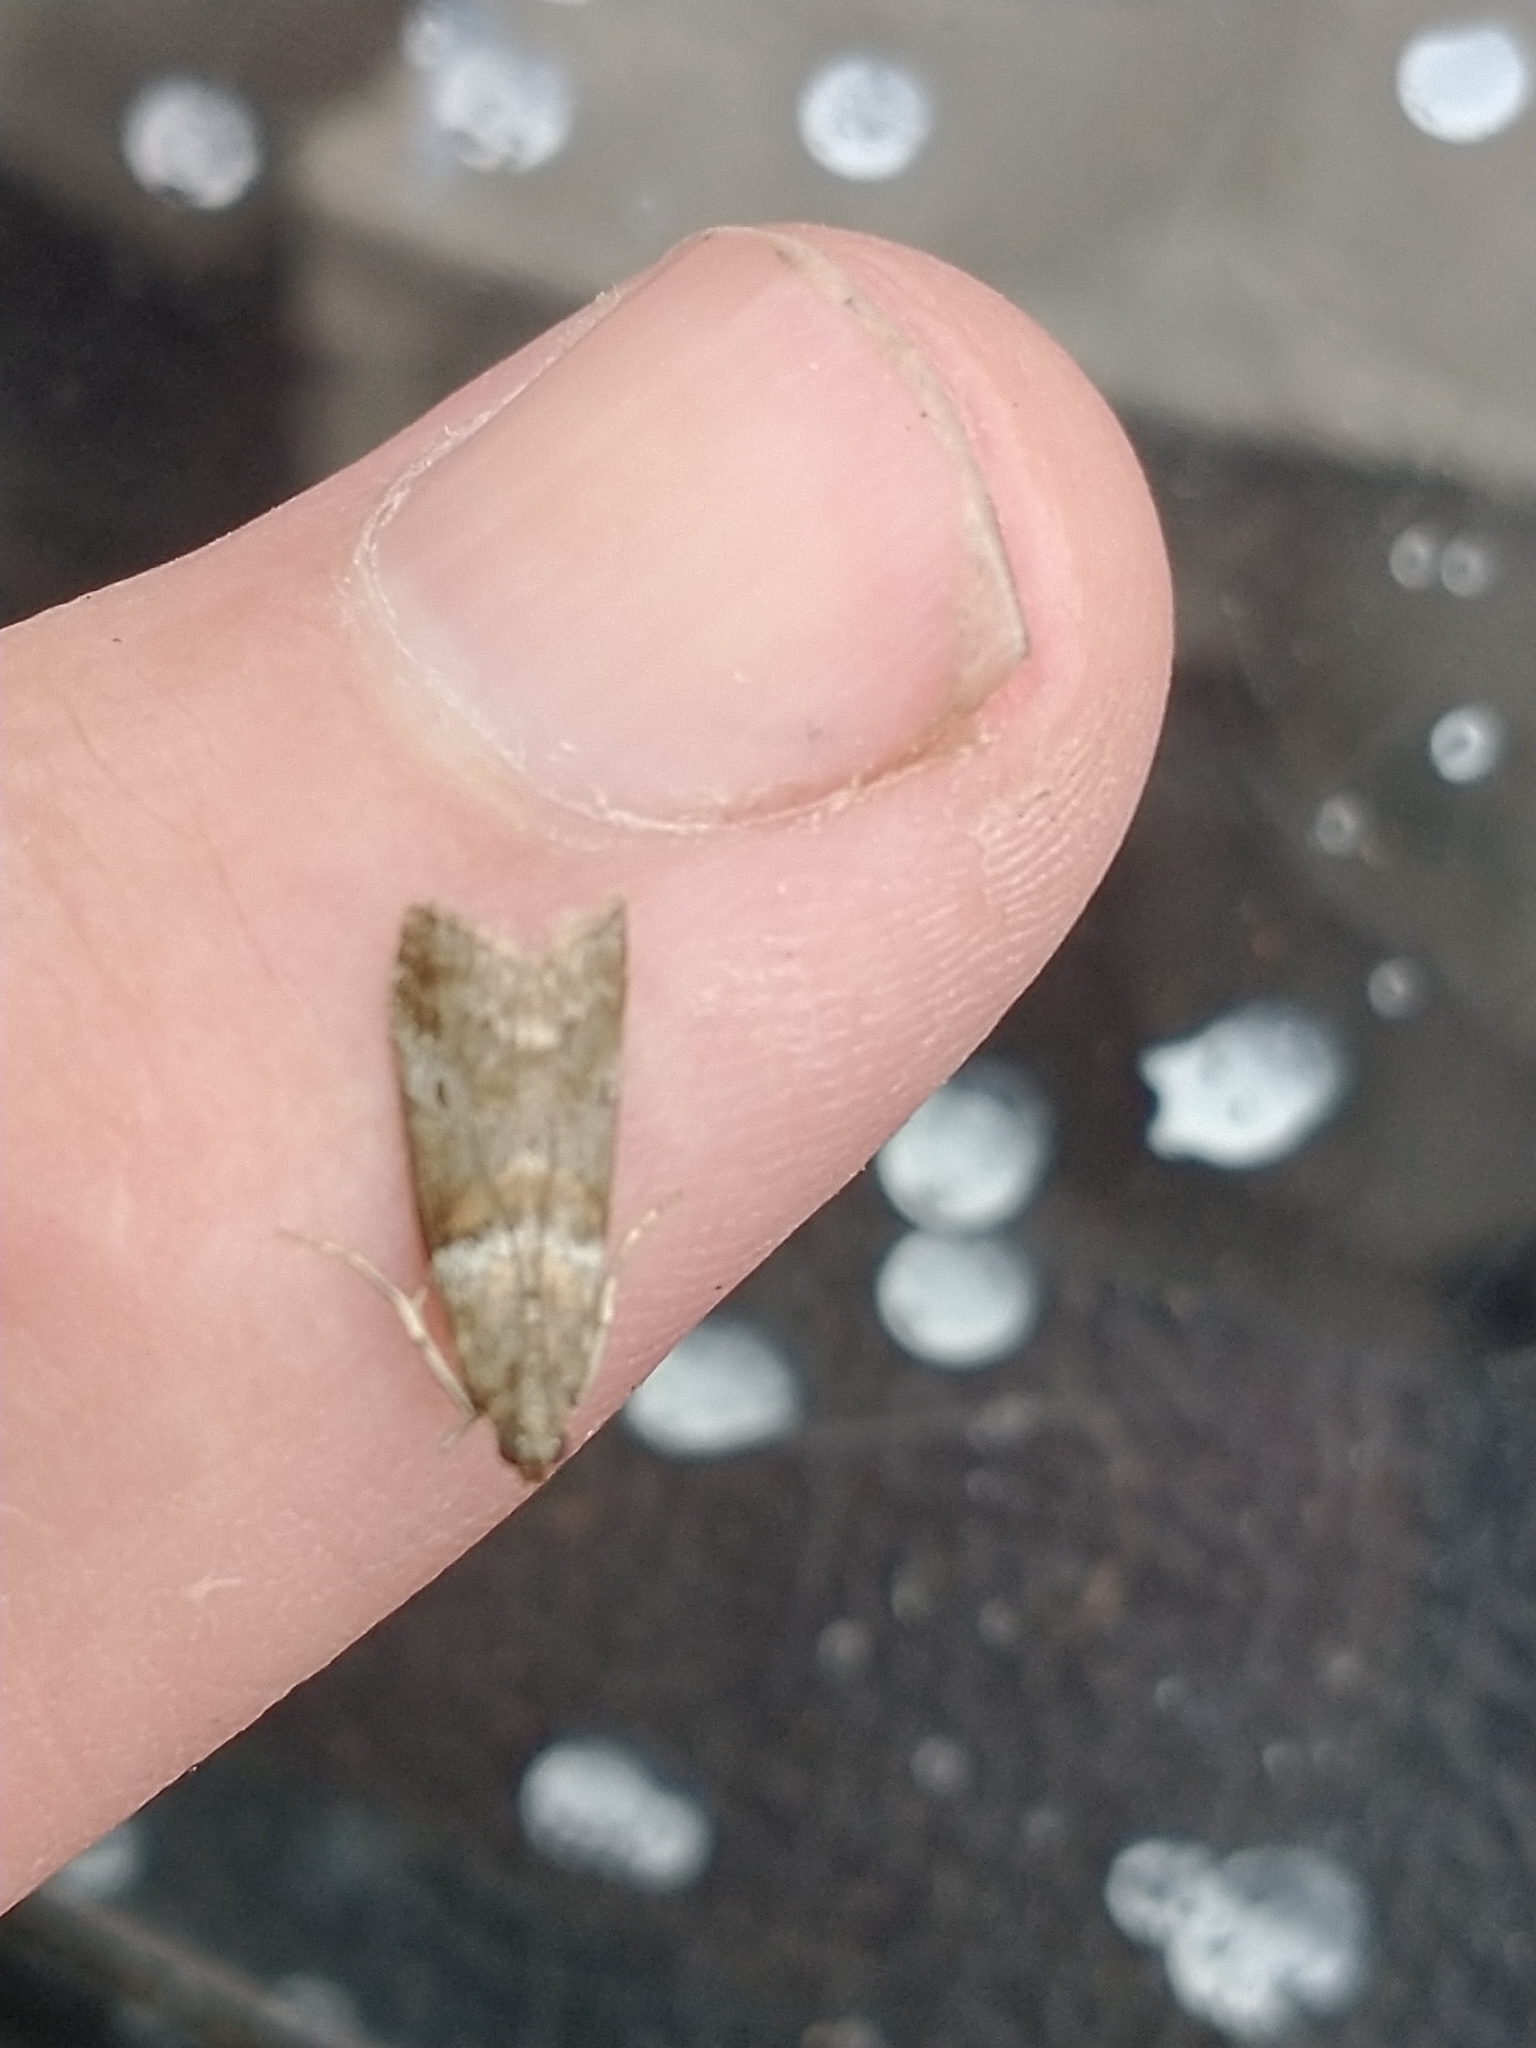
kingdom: Animalia
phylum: Arthropoda
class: Insecta
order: Lepidoptera
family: Pyralidae
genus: Acrobasis
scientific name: Acrobasis consociella
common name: Broad-barred knot-horn
